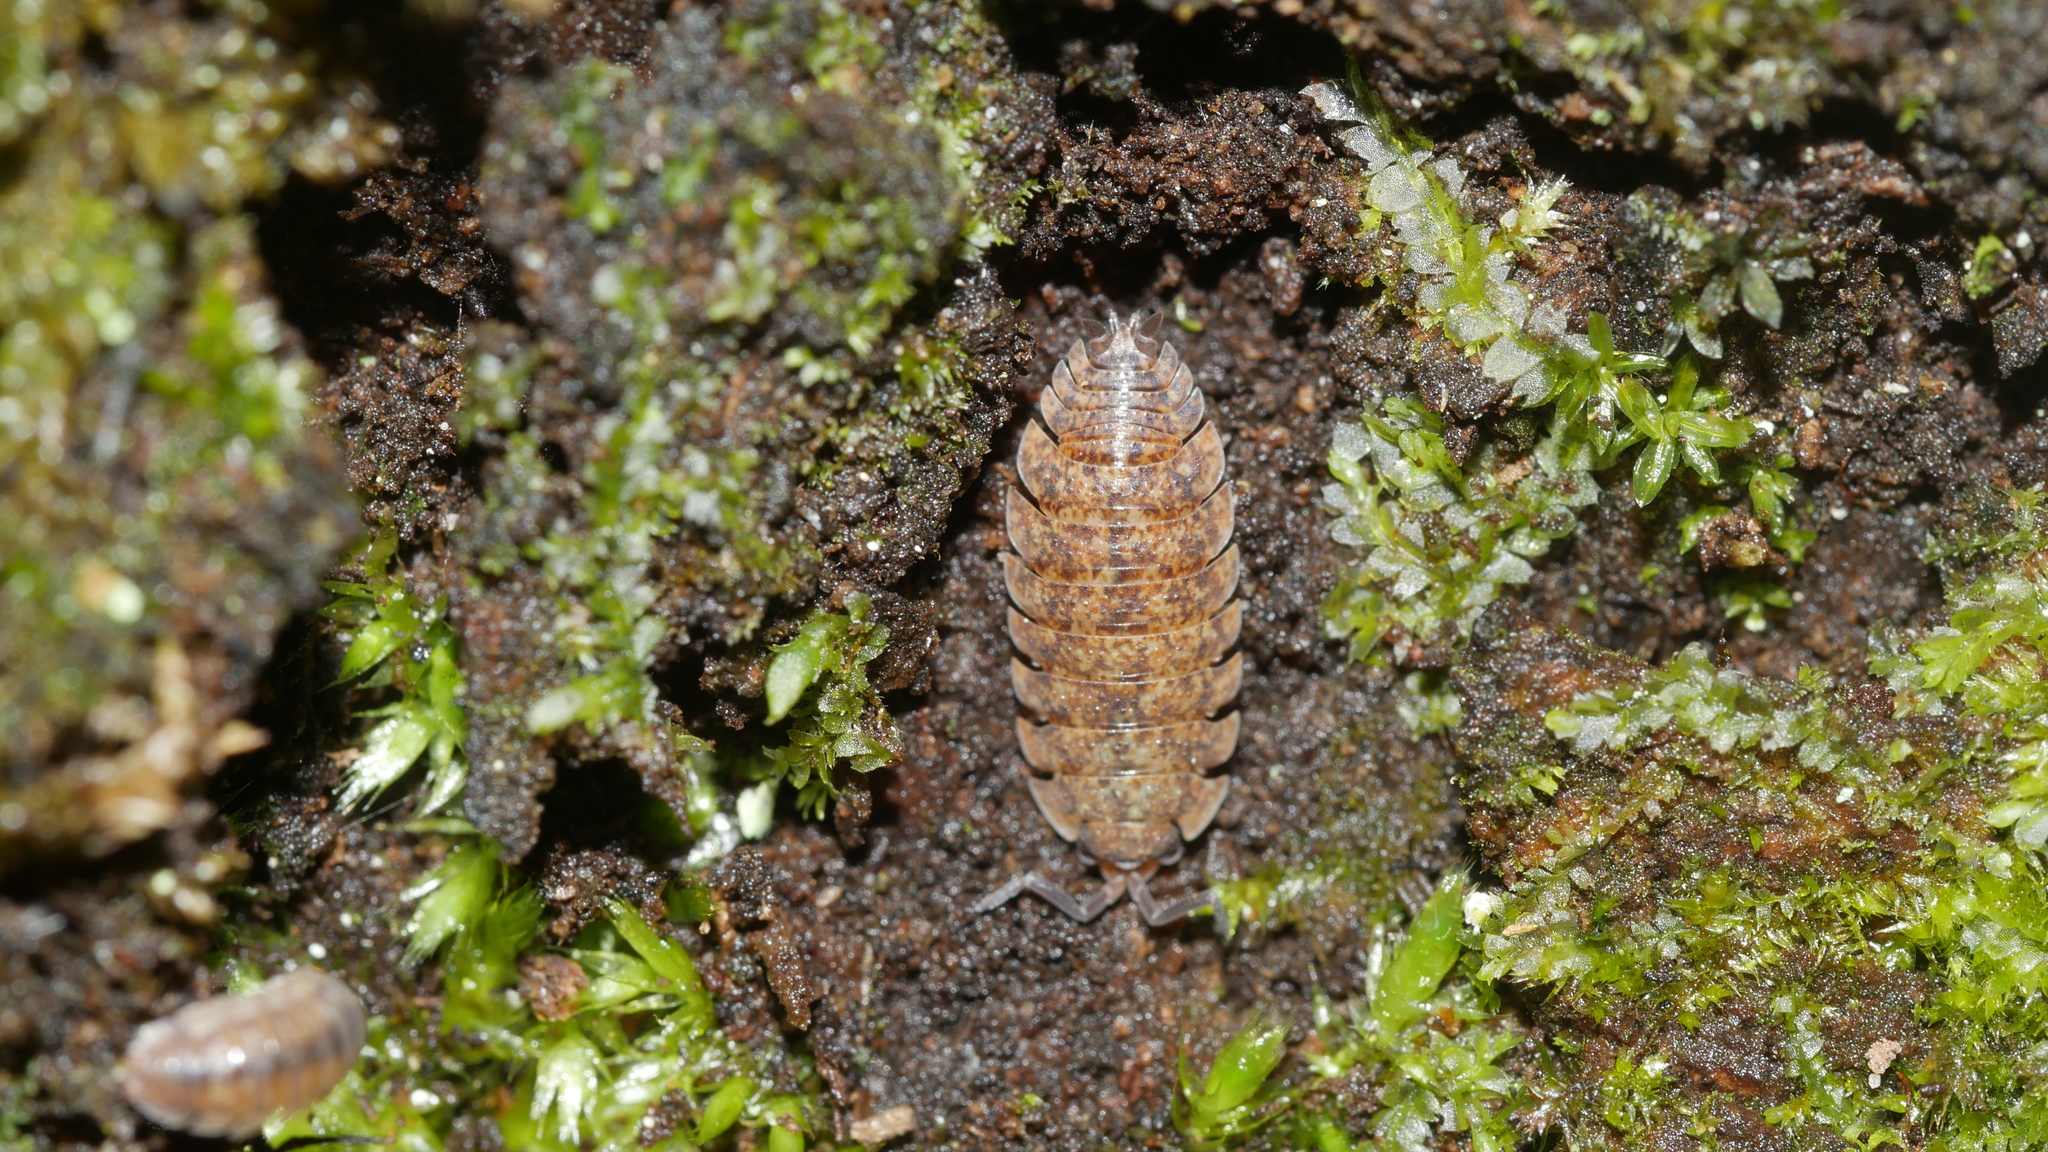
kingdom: Animalia
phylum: Arthropoda
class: Malacostraca
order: Isopoda
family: Porcellionidae
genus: Porcellio
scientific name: Porcellio scaber
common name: Common rough woodlouse
